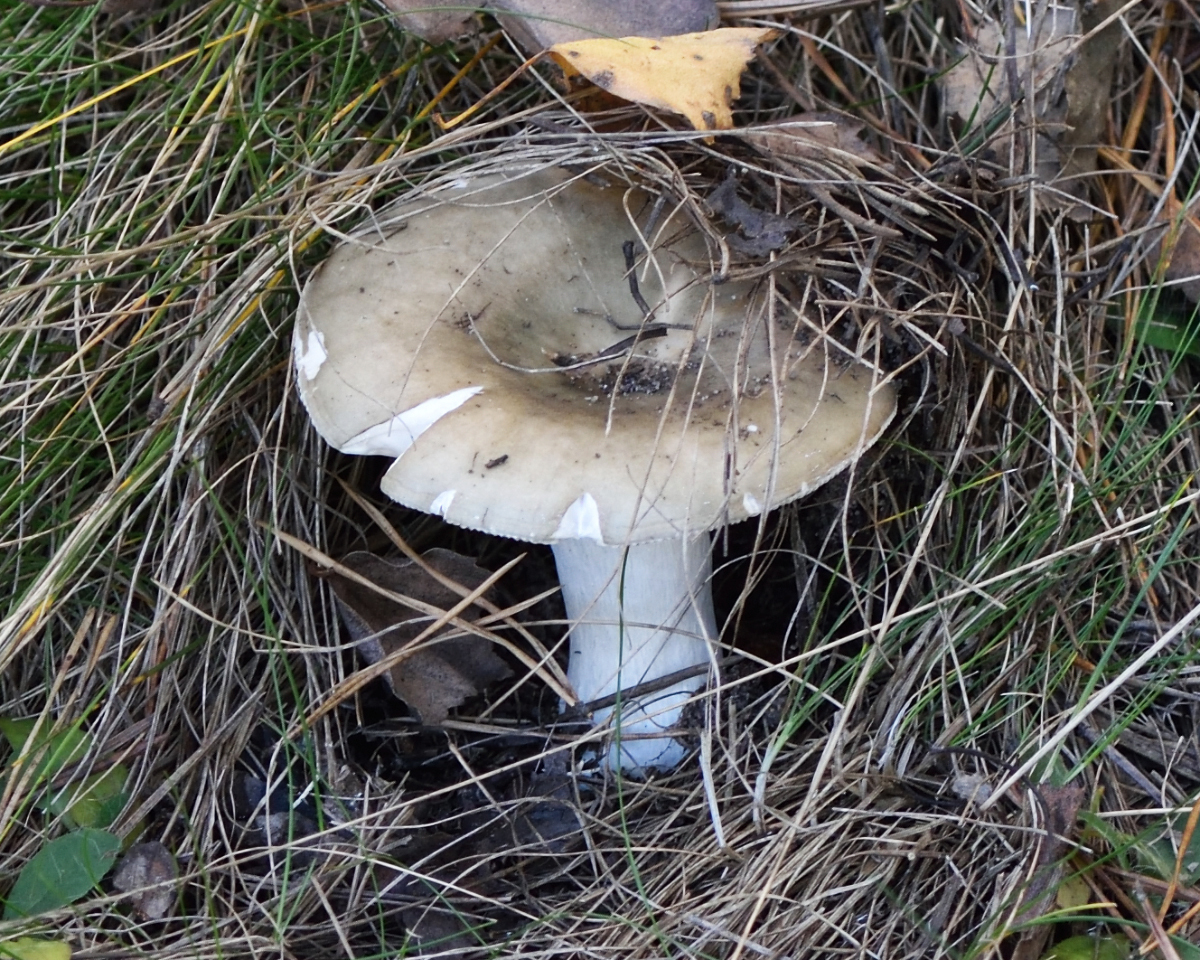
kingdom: Fungi
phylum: Basidiomycota
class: Agaricomycetes
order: Russulales
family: Russulaceae
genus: Russula
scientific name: Russula aeruginea
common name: Green brittlegill
